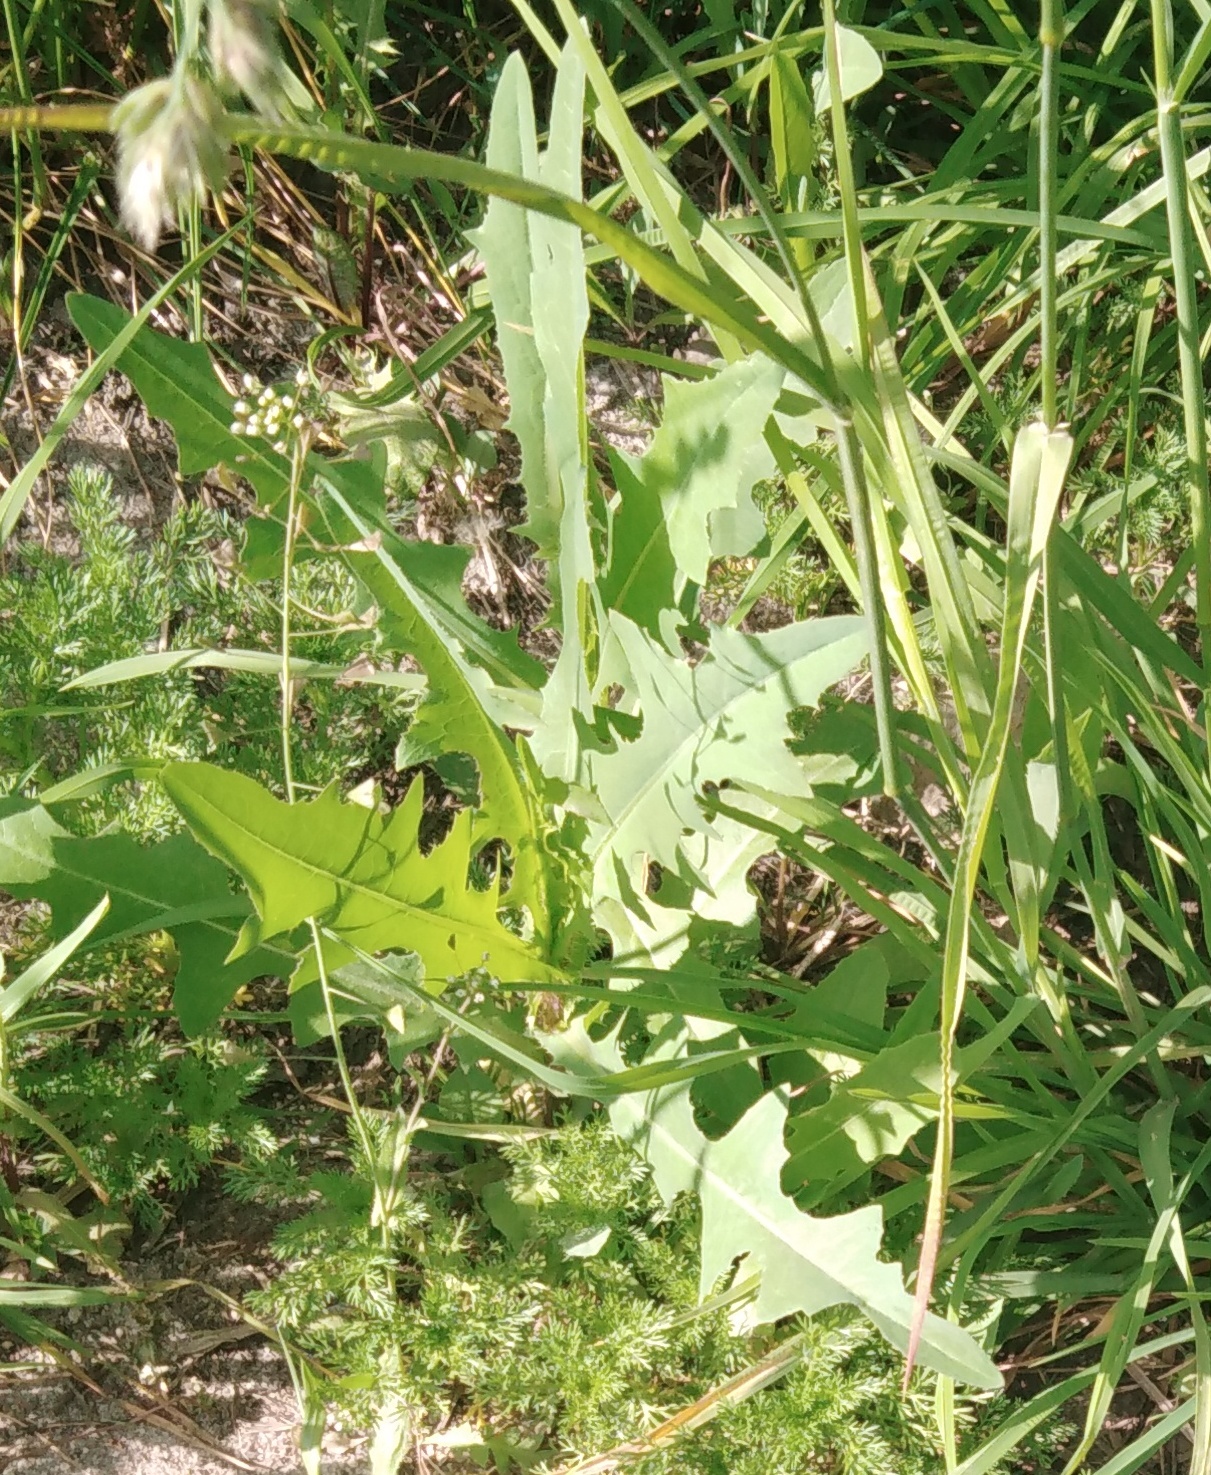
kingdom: Plantae
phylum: Tracheophyta
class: Magnoliopsida
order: Asterales
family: Asteraceae
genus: Lactuca
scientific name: Lactuca serriola
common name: Prickly lettuce
